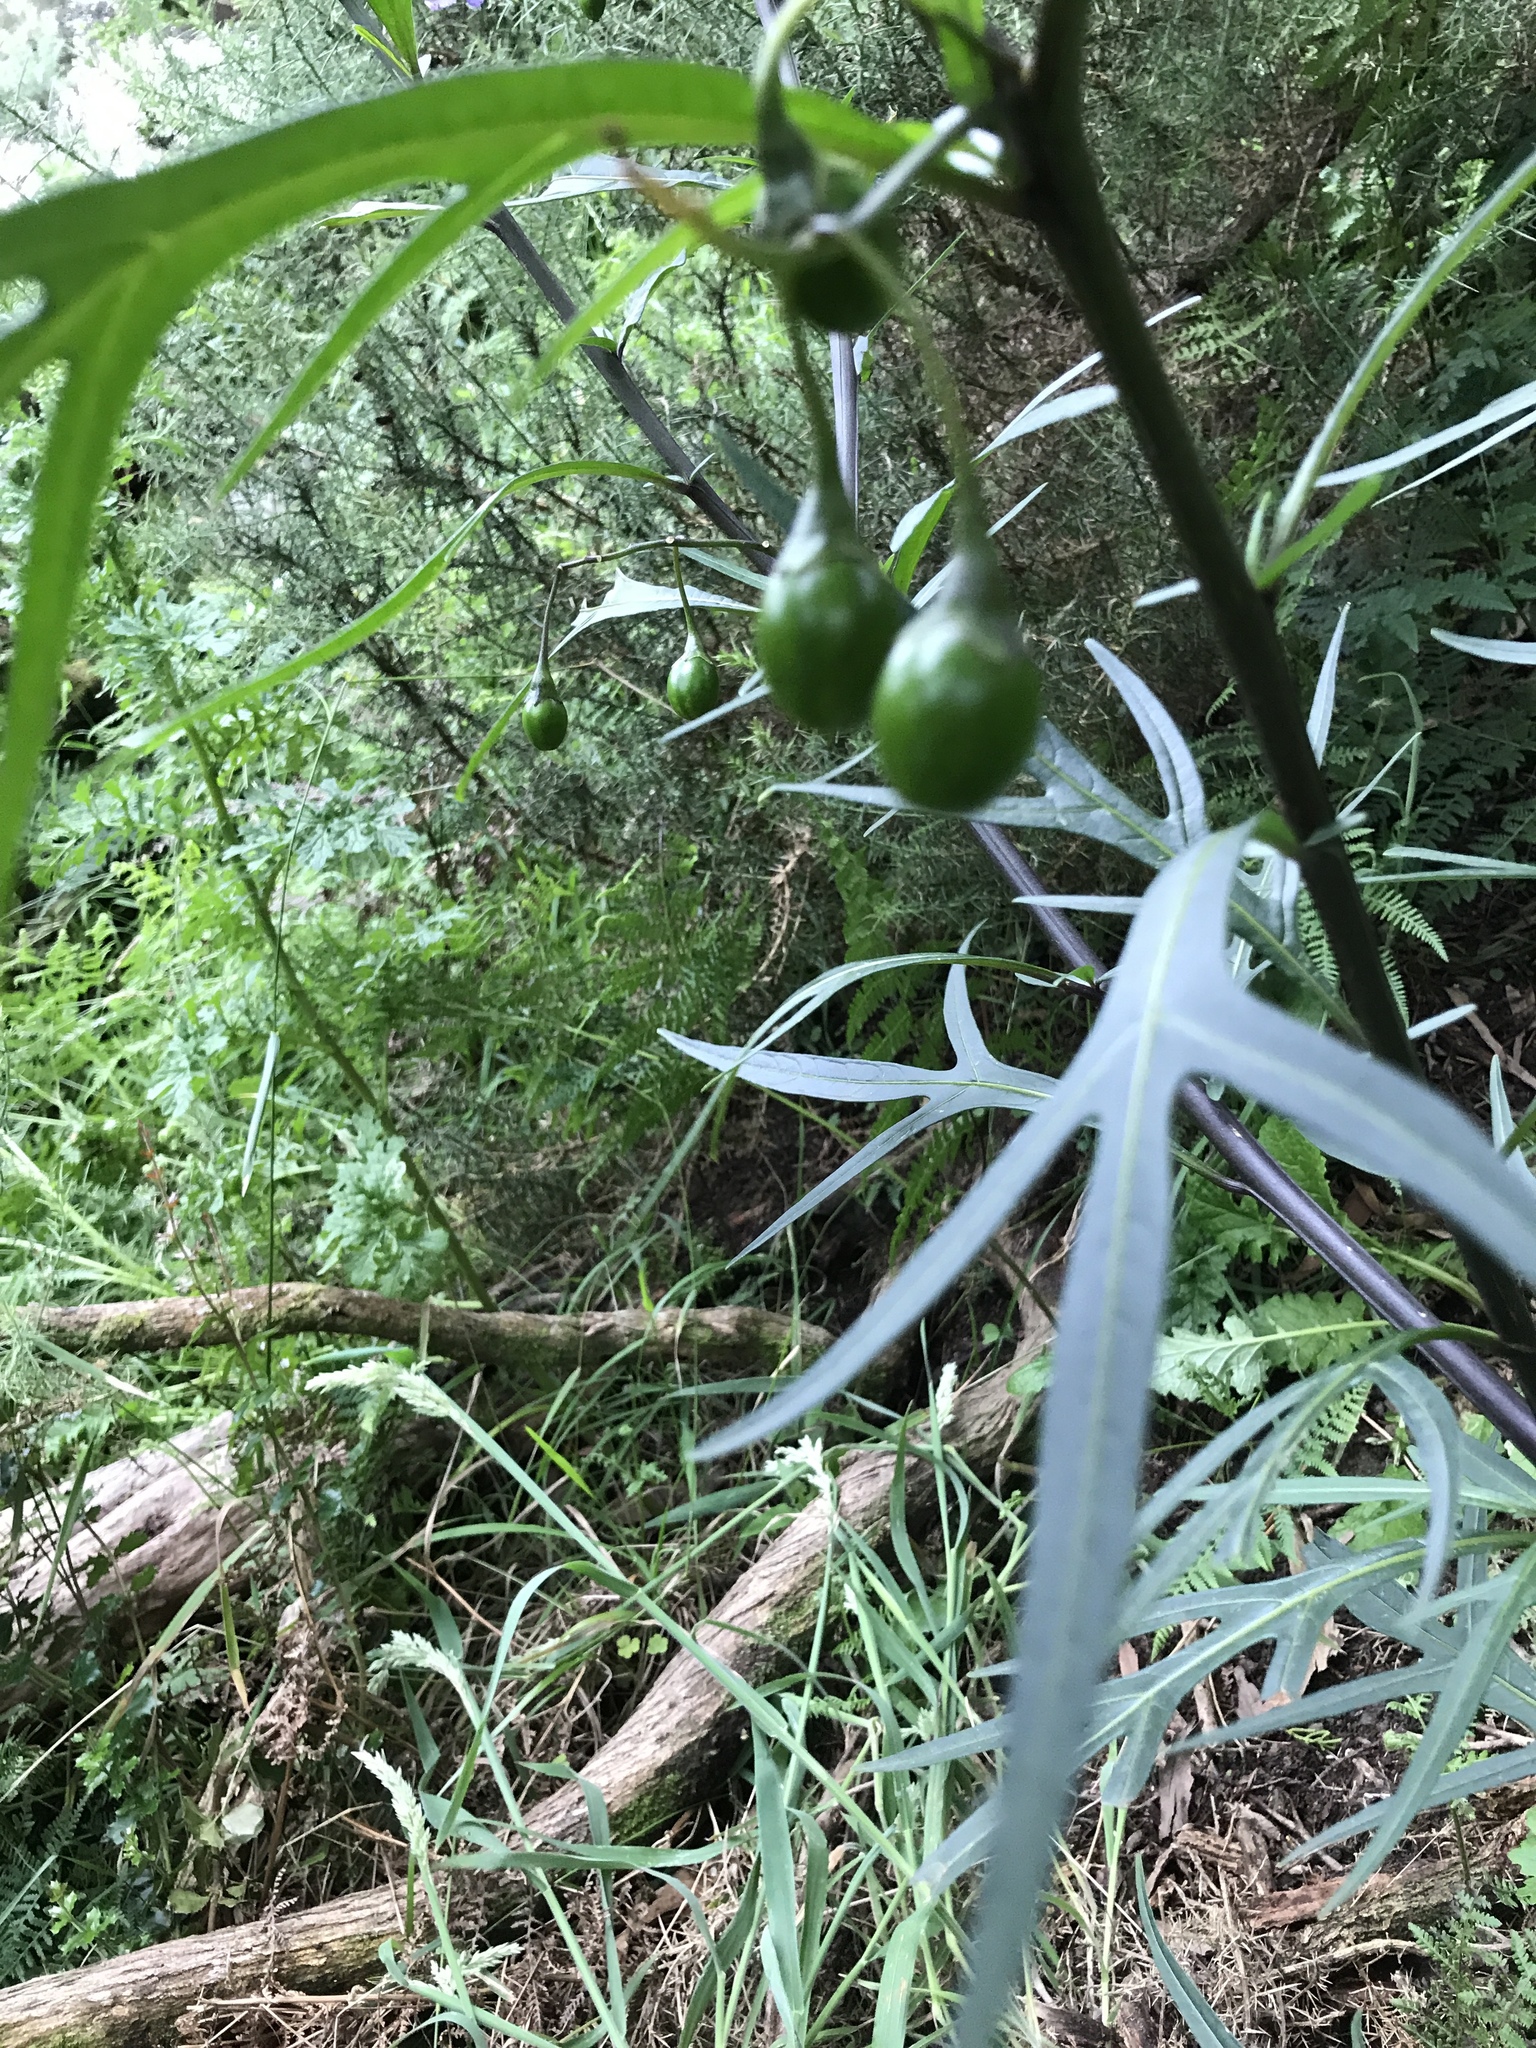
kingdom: Plantae
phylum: Tracheophyta
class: Magnoliopsida
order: Solanales
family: Solanaceae
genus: Solanum
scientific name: Solanum laciniatum
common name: Kangaroo-apple
